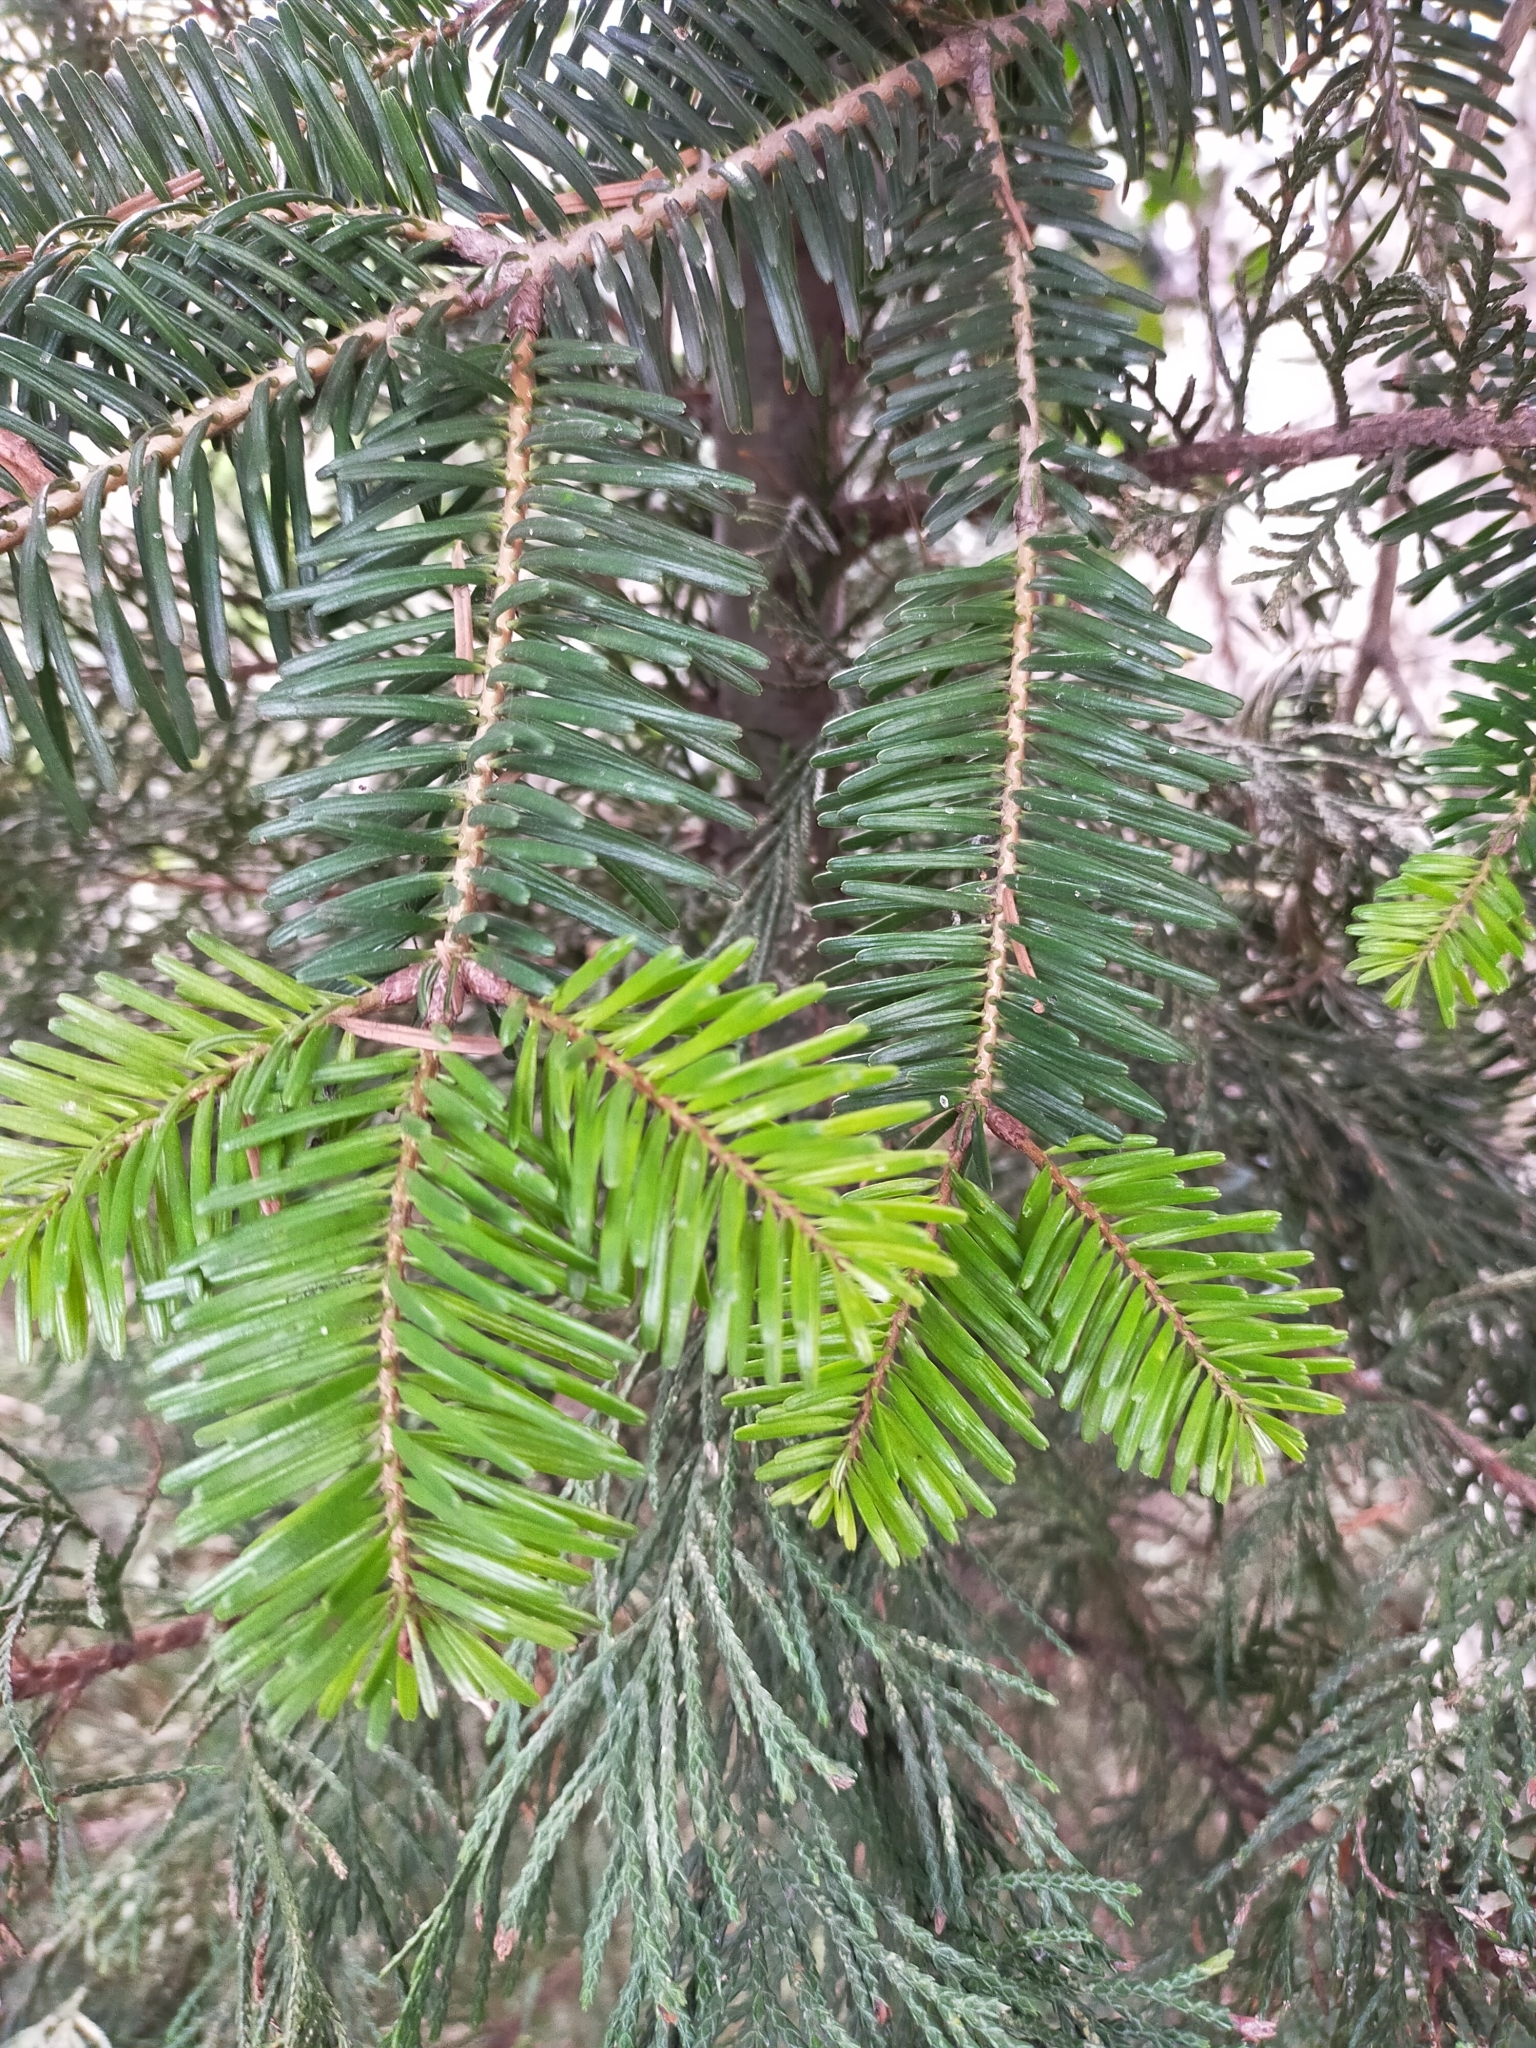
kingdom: Plantae
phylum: Tracheophyta
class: Pinopsida
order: Pinales
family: Pinaceae
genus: Abies
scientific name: Abies
